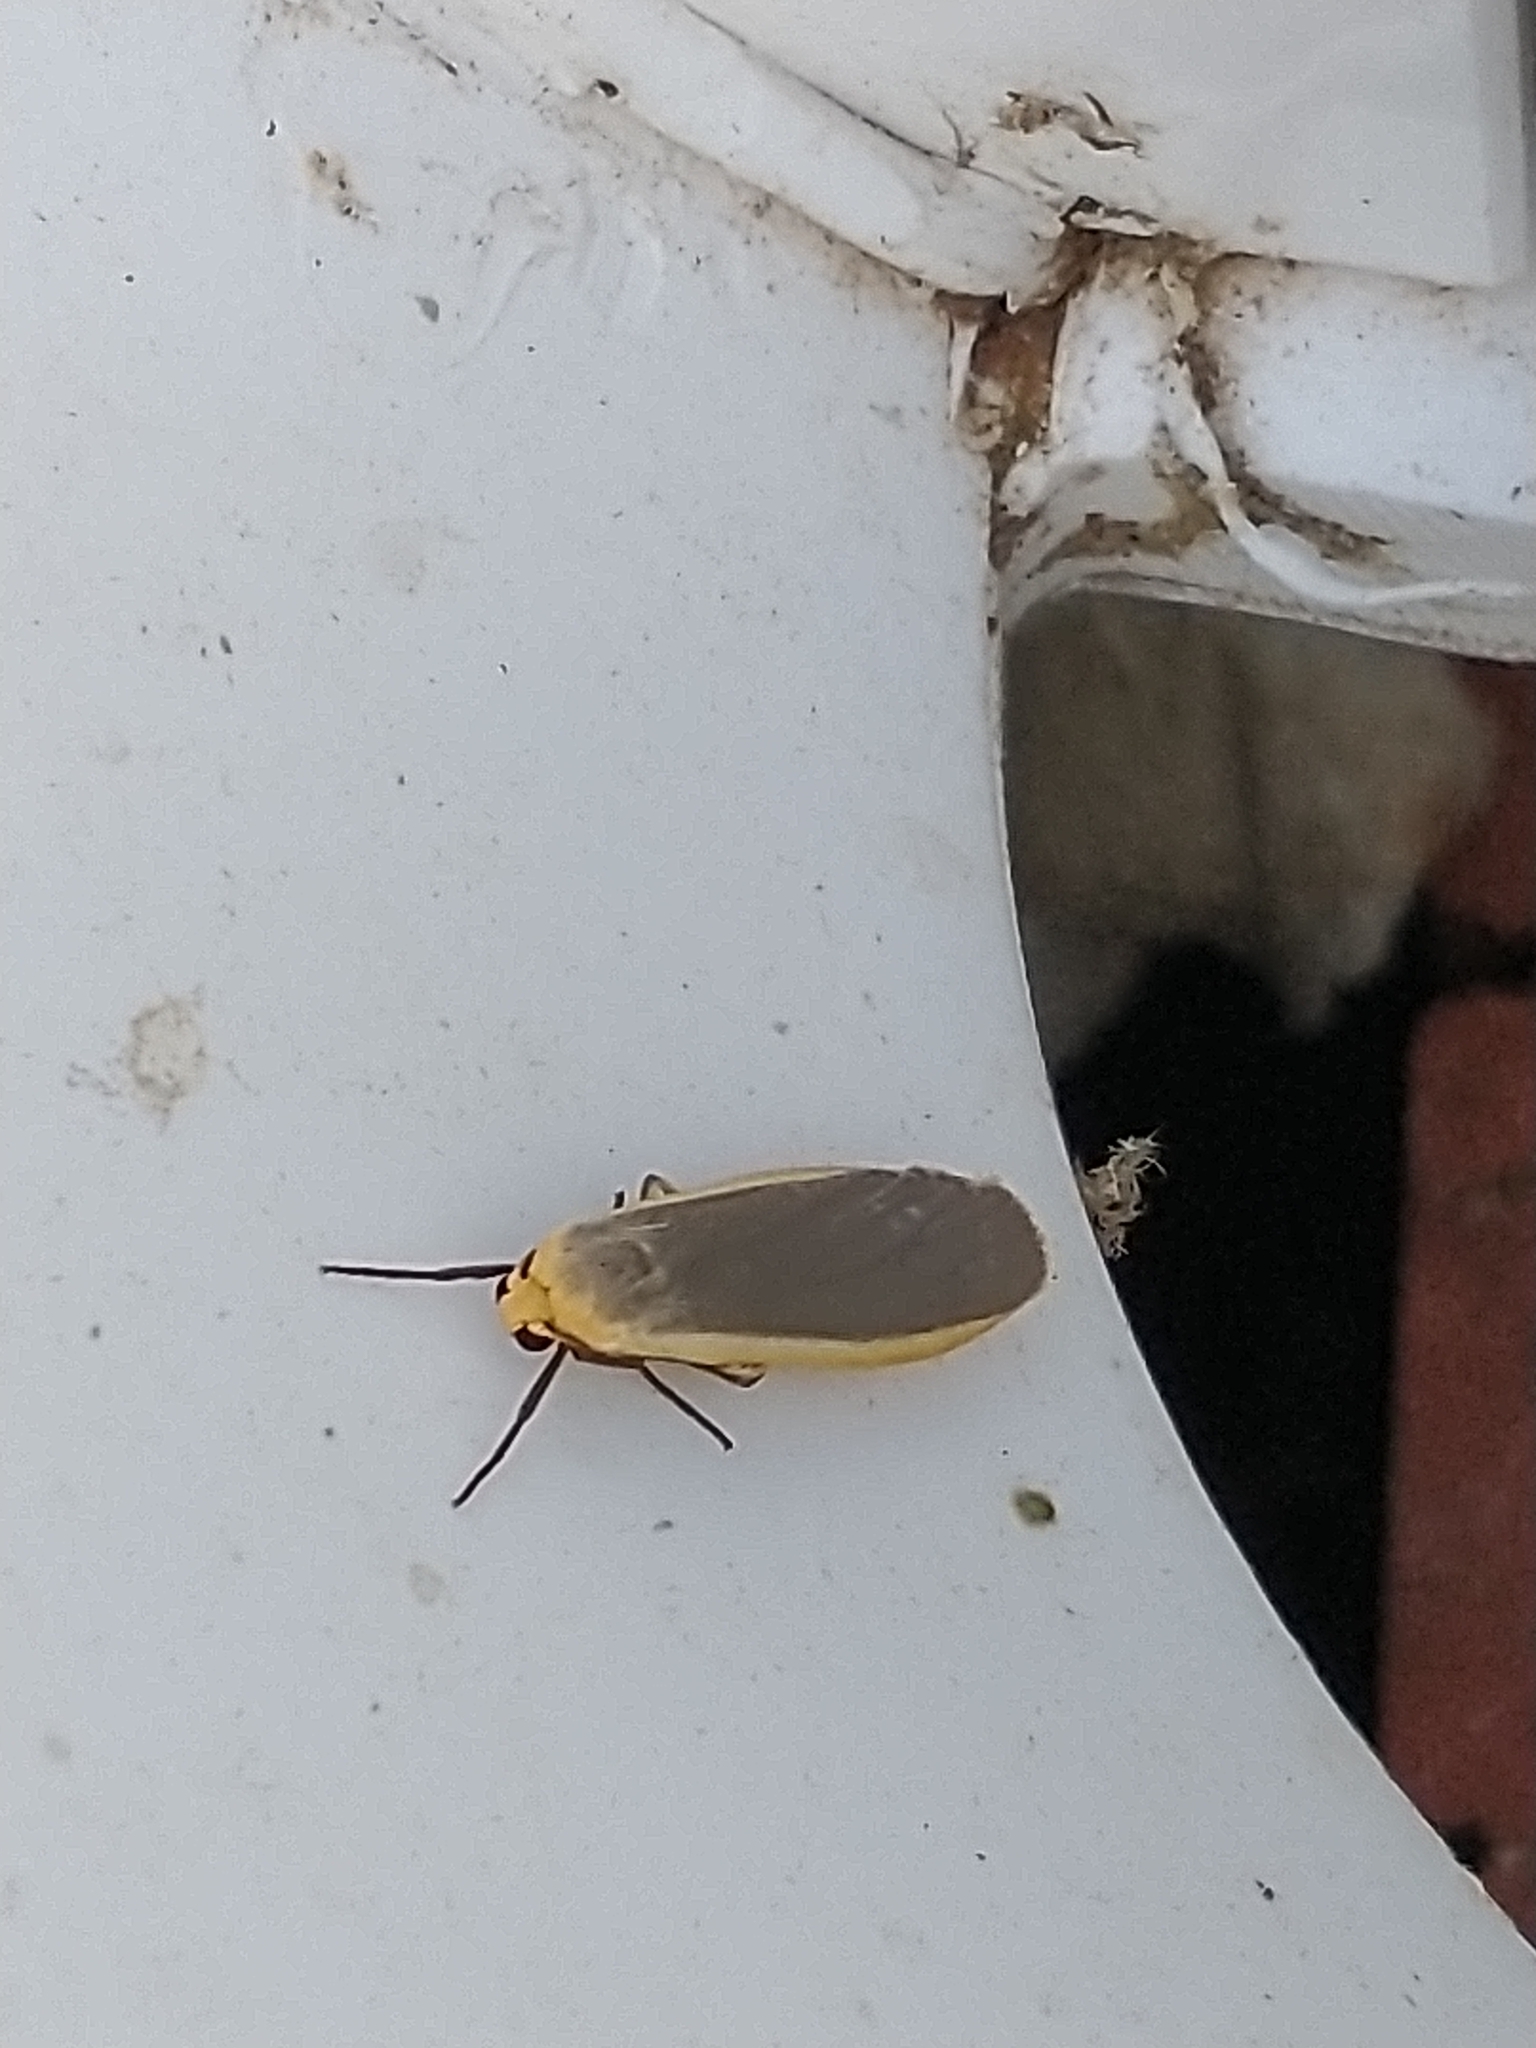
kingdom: Animalia
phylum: Arthropoda
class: Insecta
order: Lepidoptera
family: Erebidae
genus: Nyea
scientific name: Nyea lurideola
